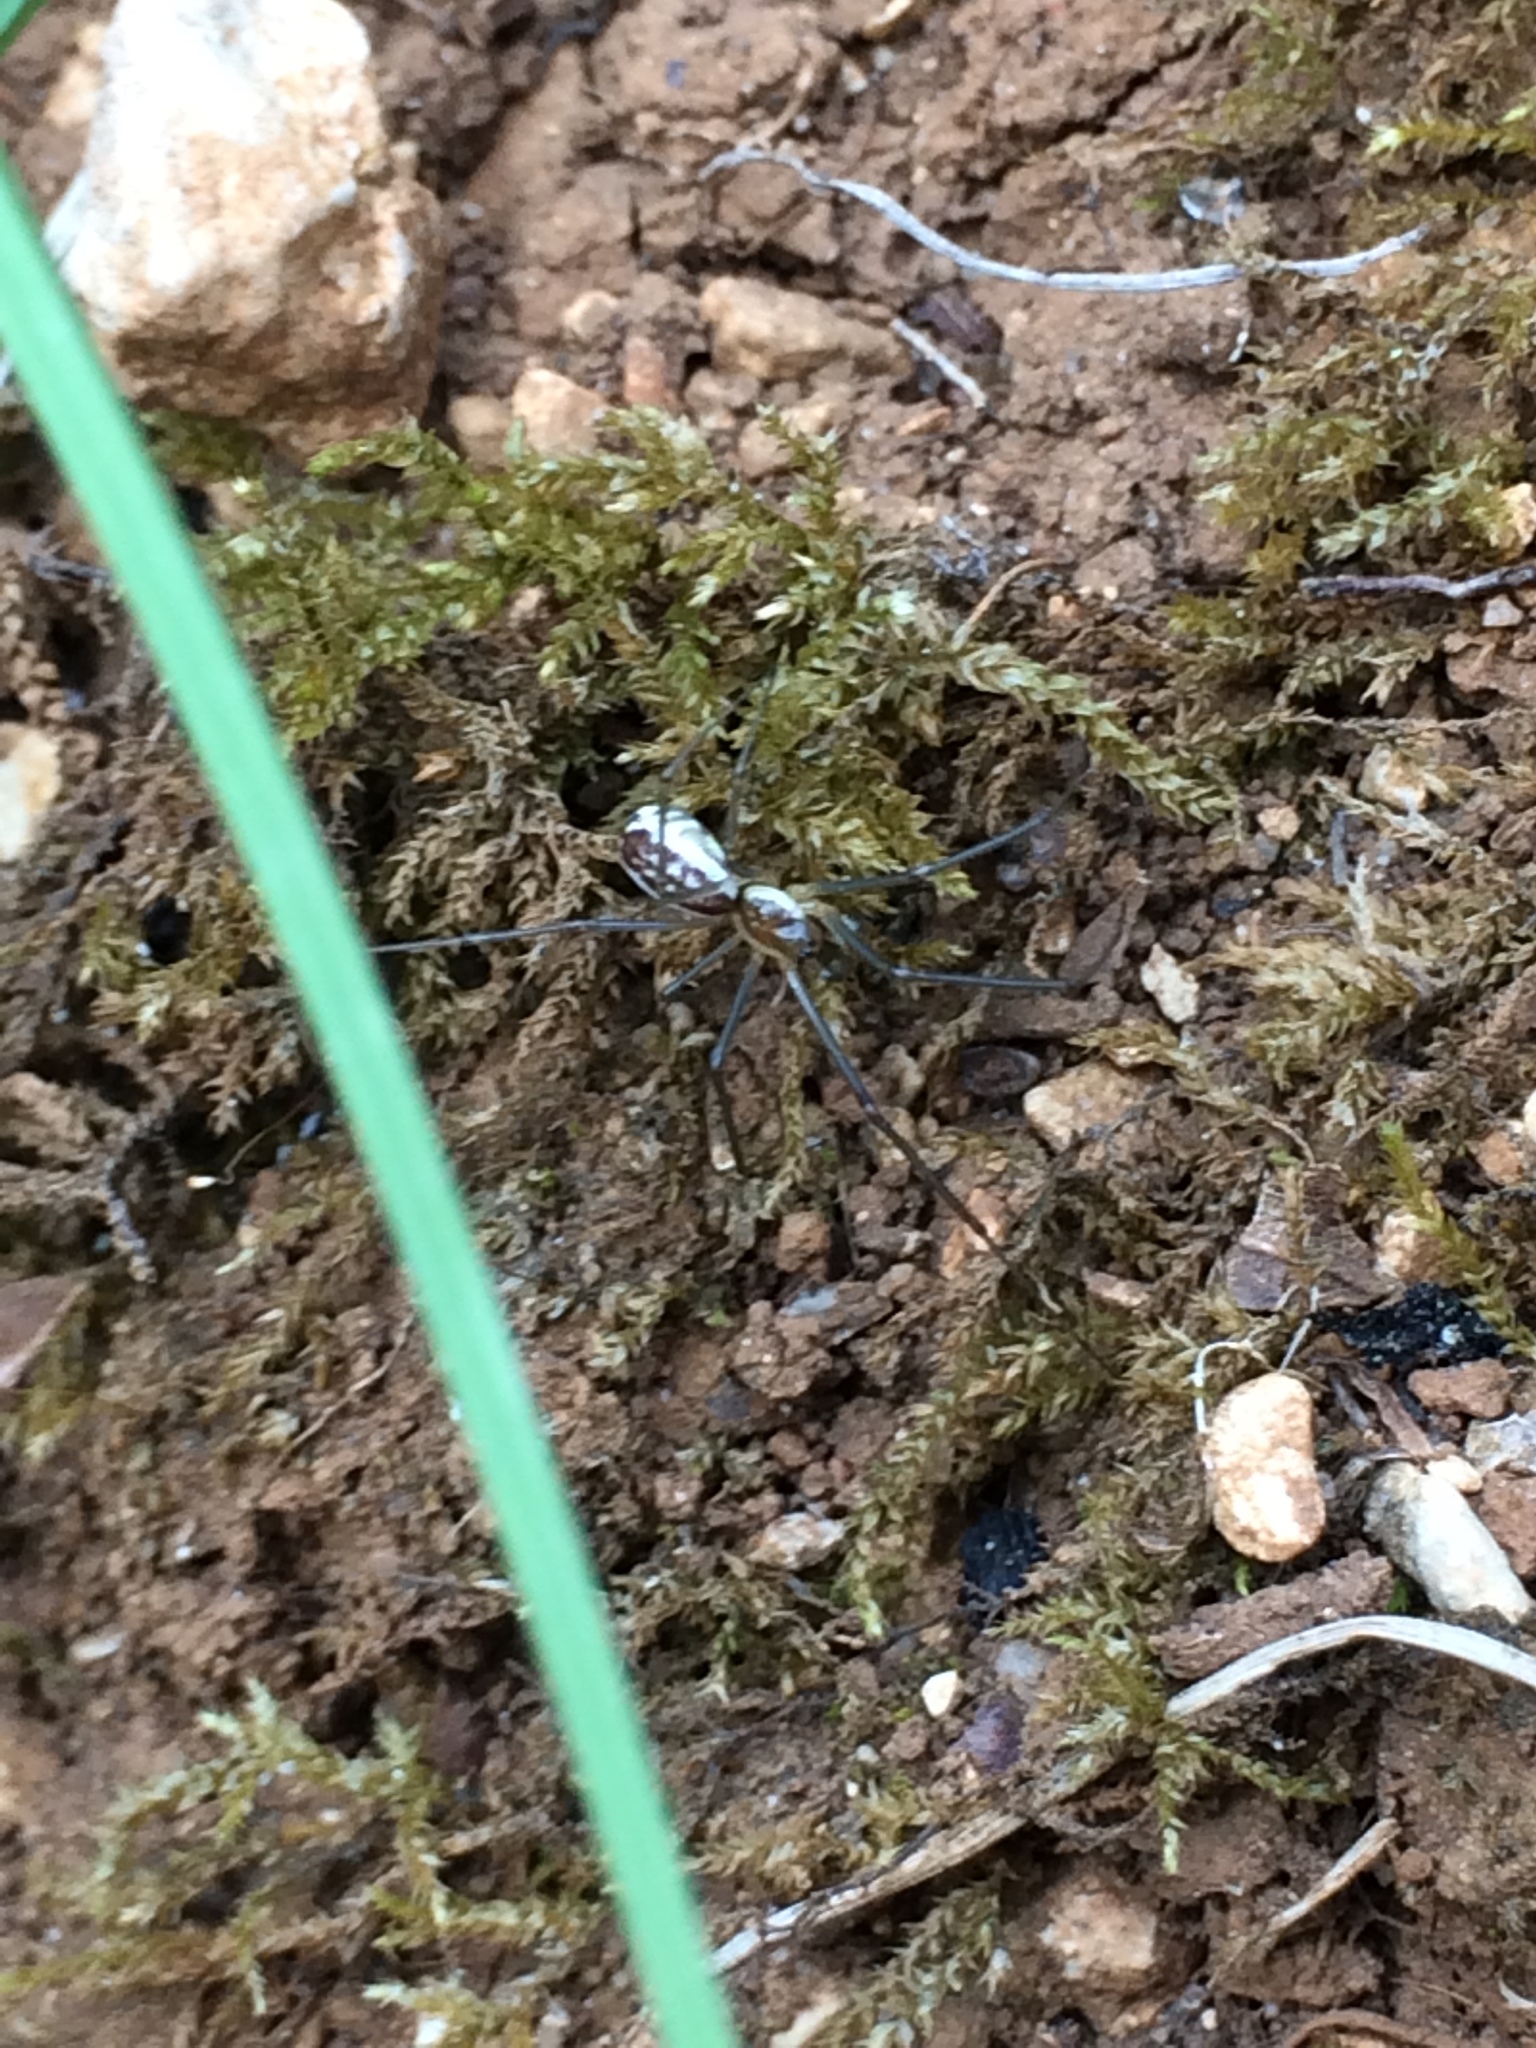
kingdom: Animalia
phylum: Arthropoda
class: Arachnida
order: Araneae
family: Linyphiidae
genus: Neriene
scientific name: Neriene radiata
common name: Filmy dome spider
